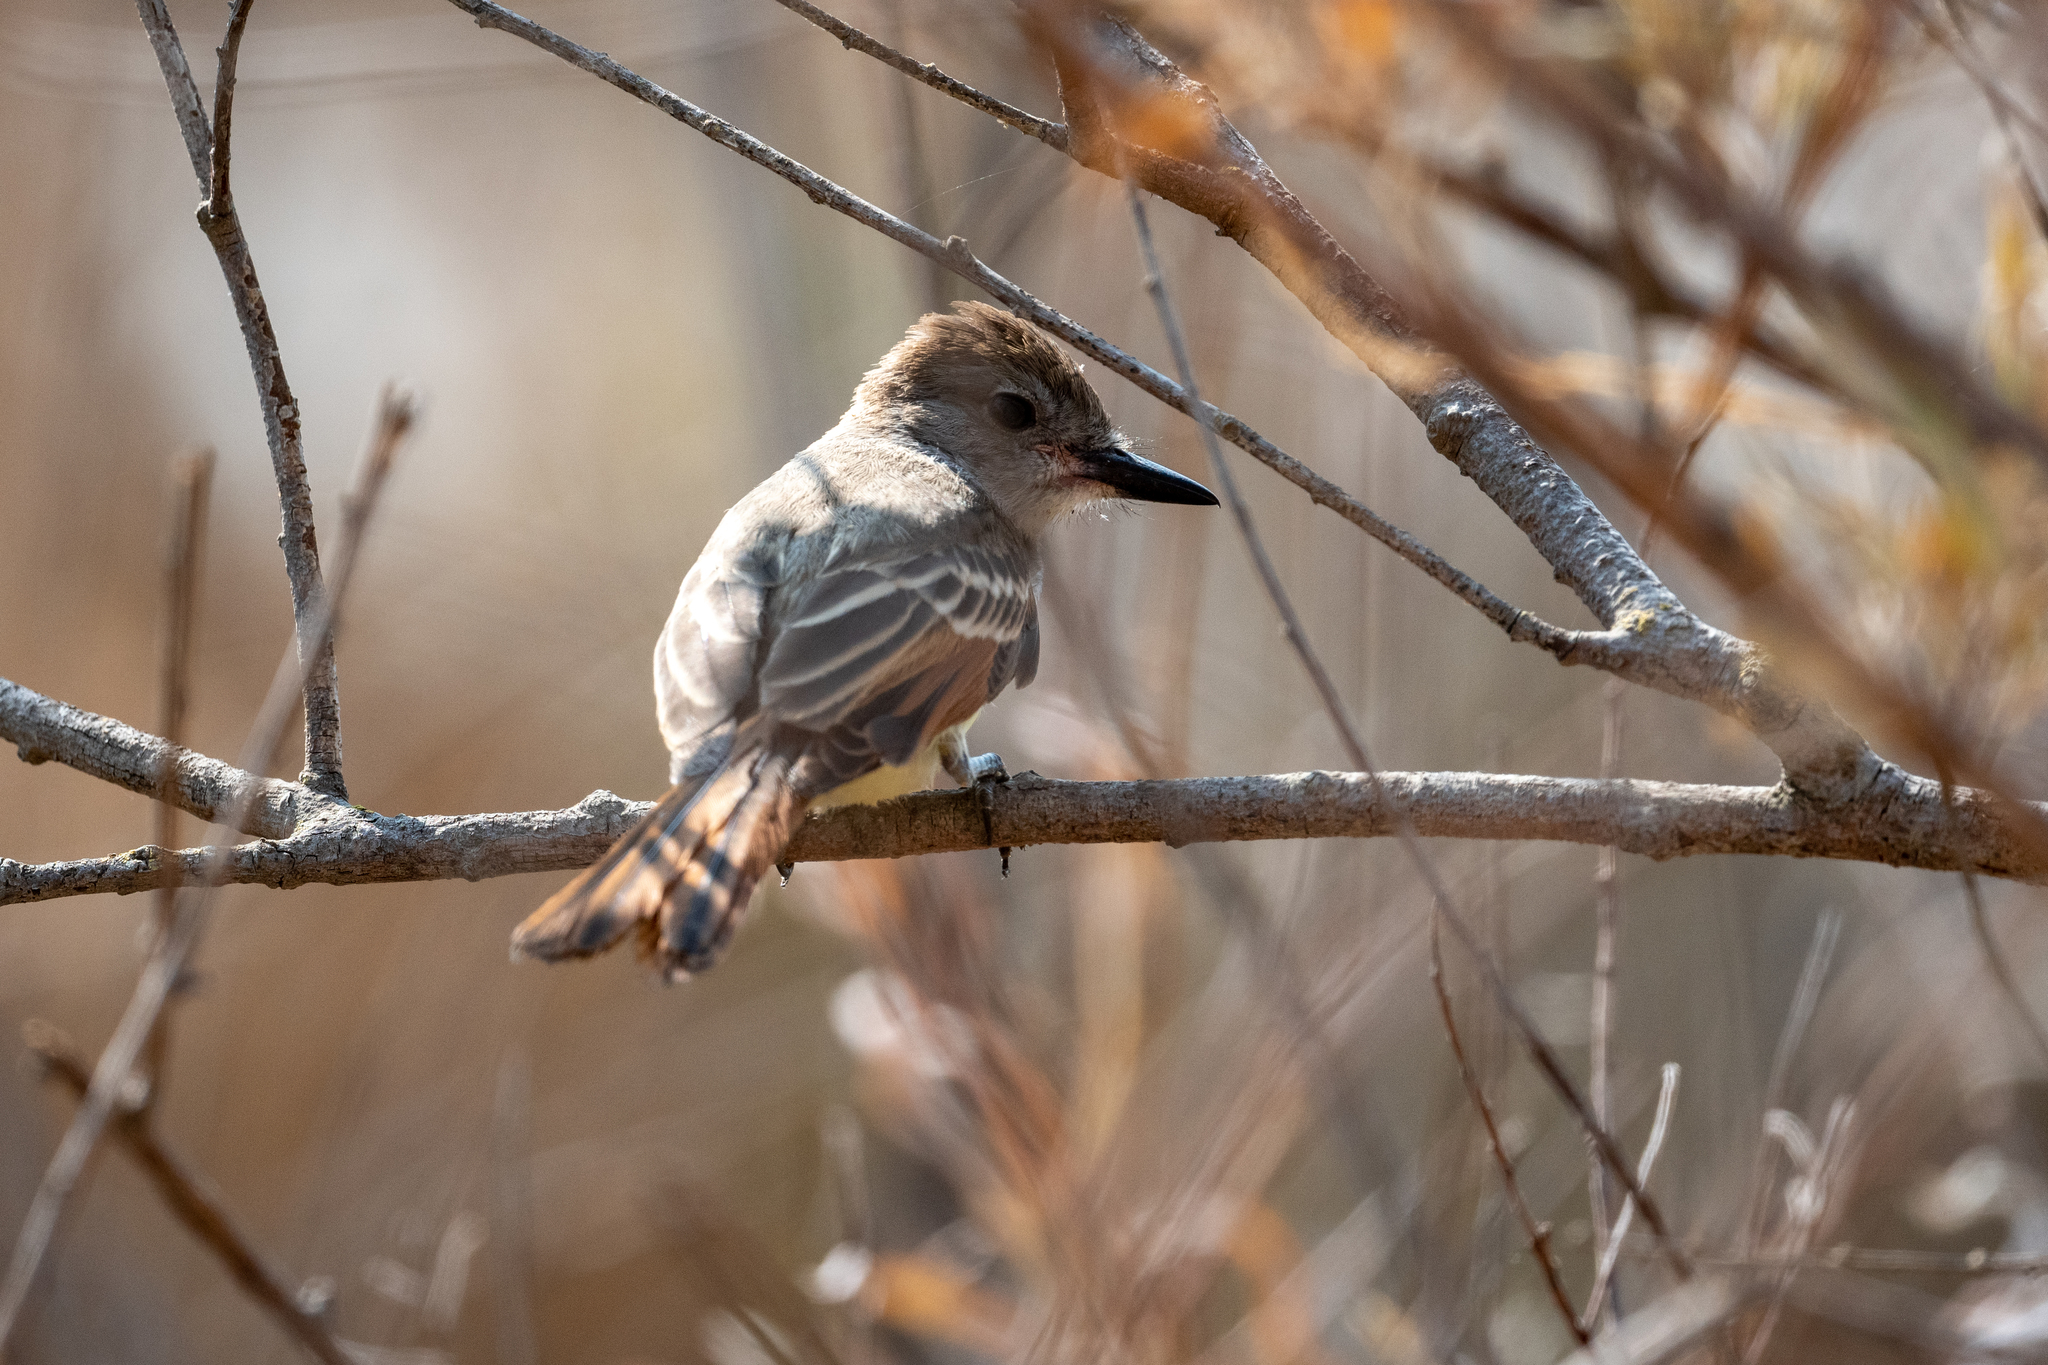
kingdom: Animalia
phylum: Chordata
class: Aves
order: Passeriformes
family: Tyrannidae
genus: Myiarchus
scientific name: Myiarchus cinerascens
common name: Ash-throated flycatcher
